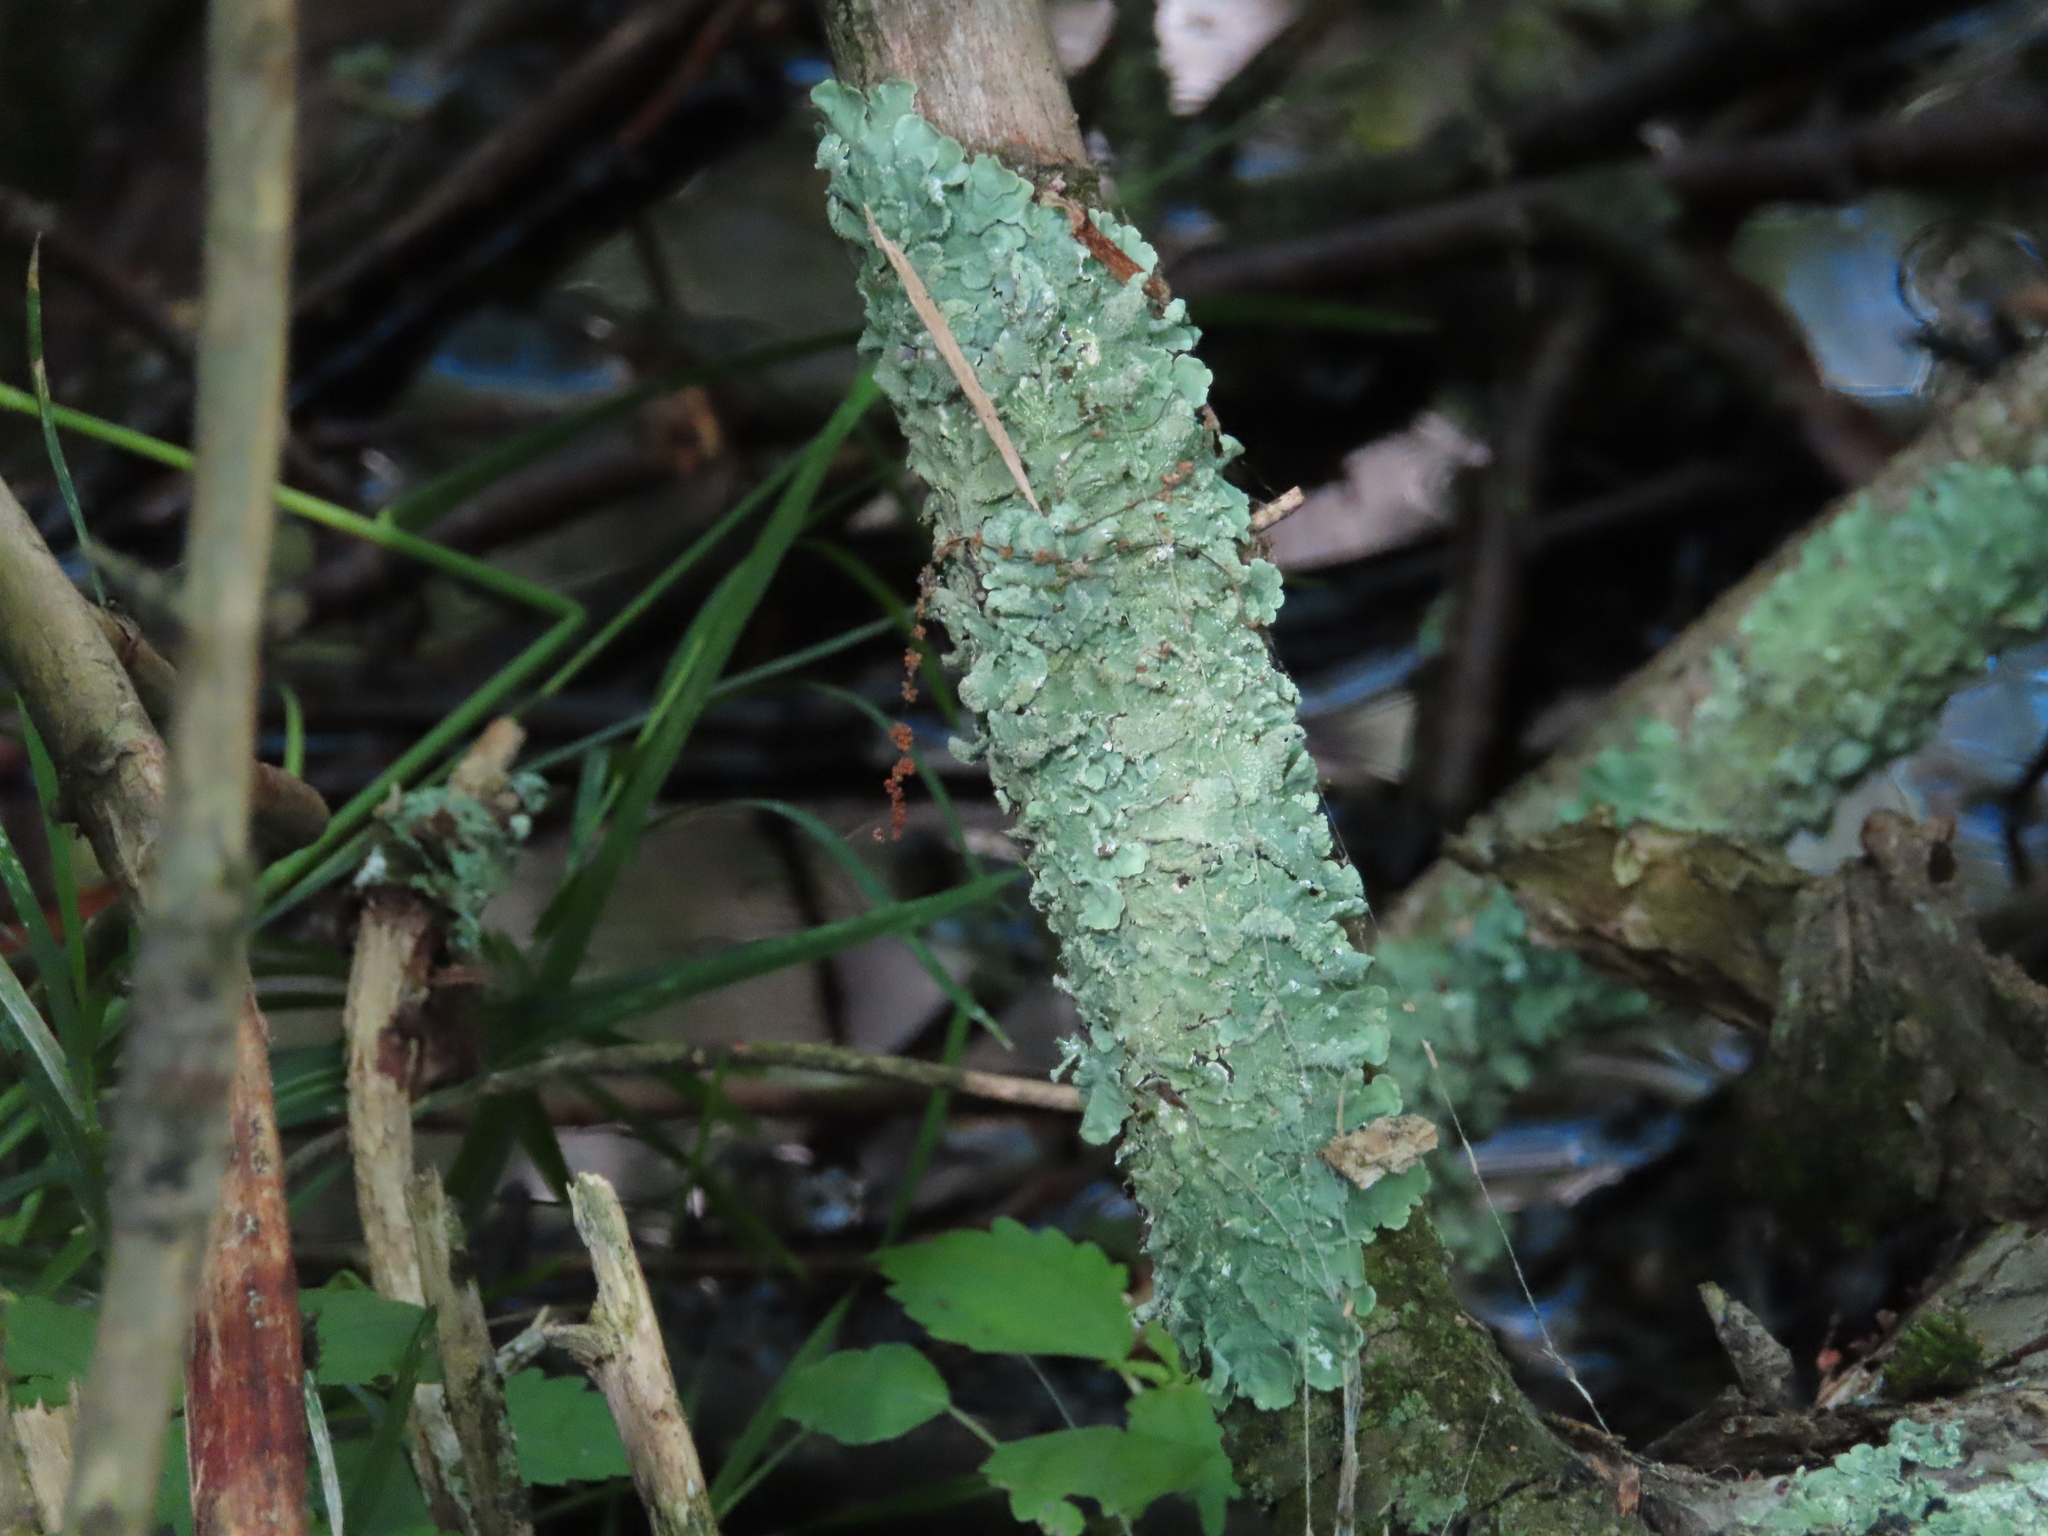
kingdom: Fungi
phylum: Ascomycota
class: Lecanoromycetes
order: Lecanorales
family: Parmeliaceae
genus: Flavoparmelia
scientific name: Flavoparmelia caperata
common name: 40-mile per hour lichen
